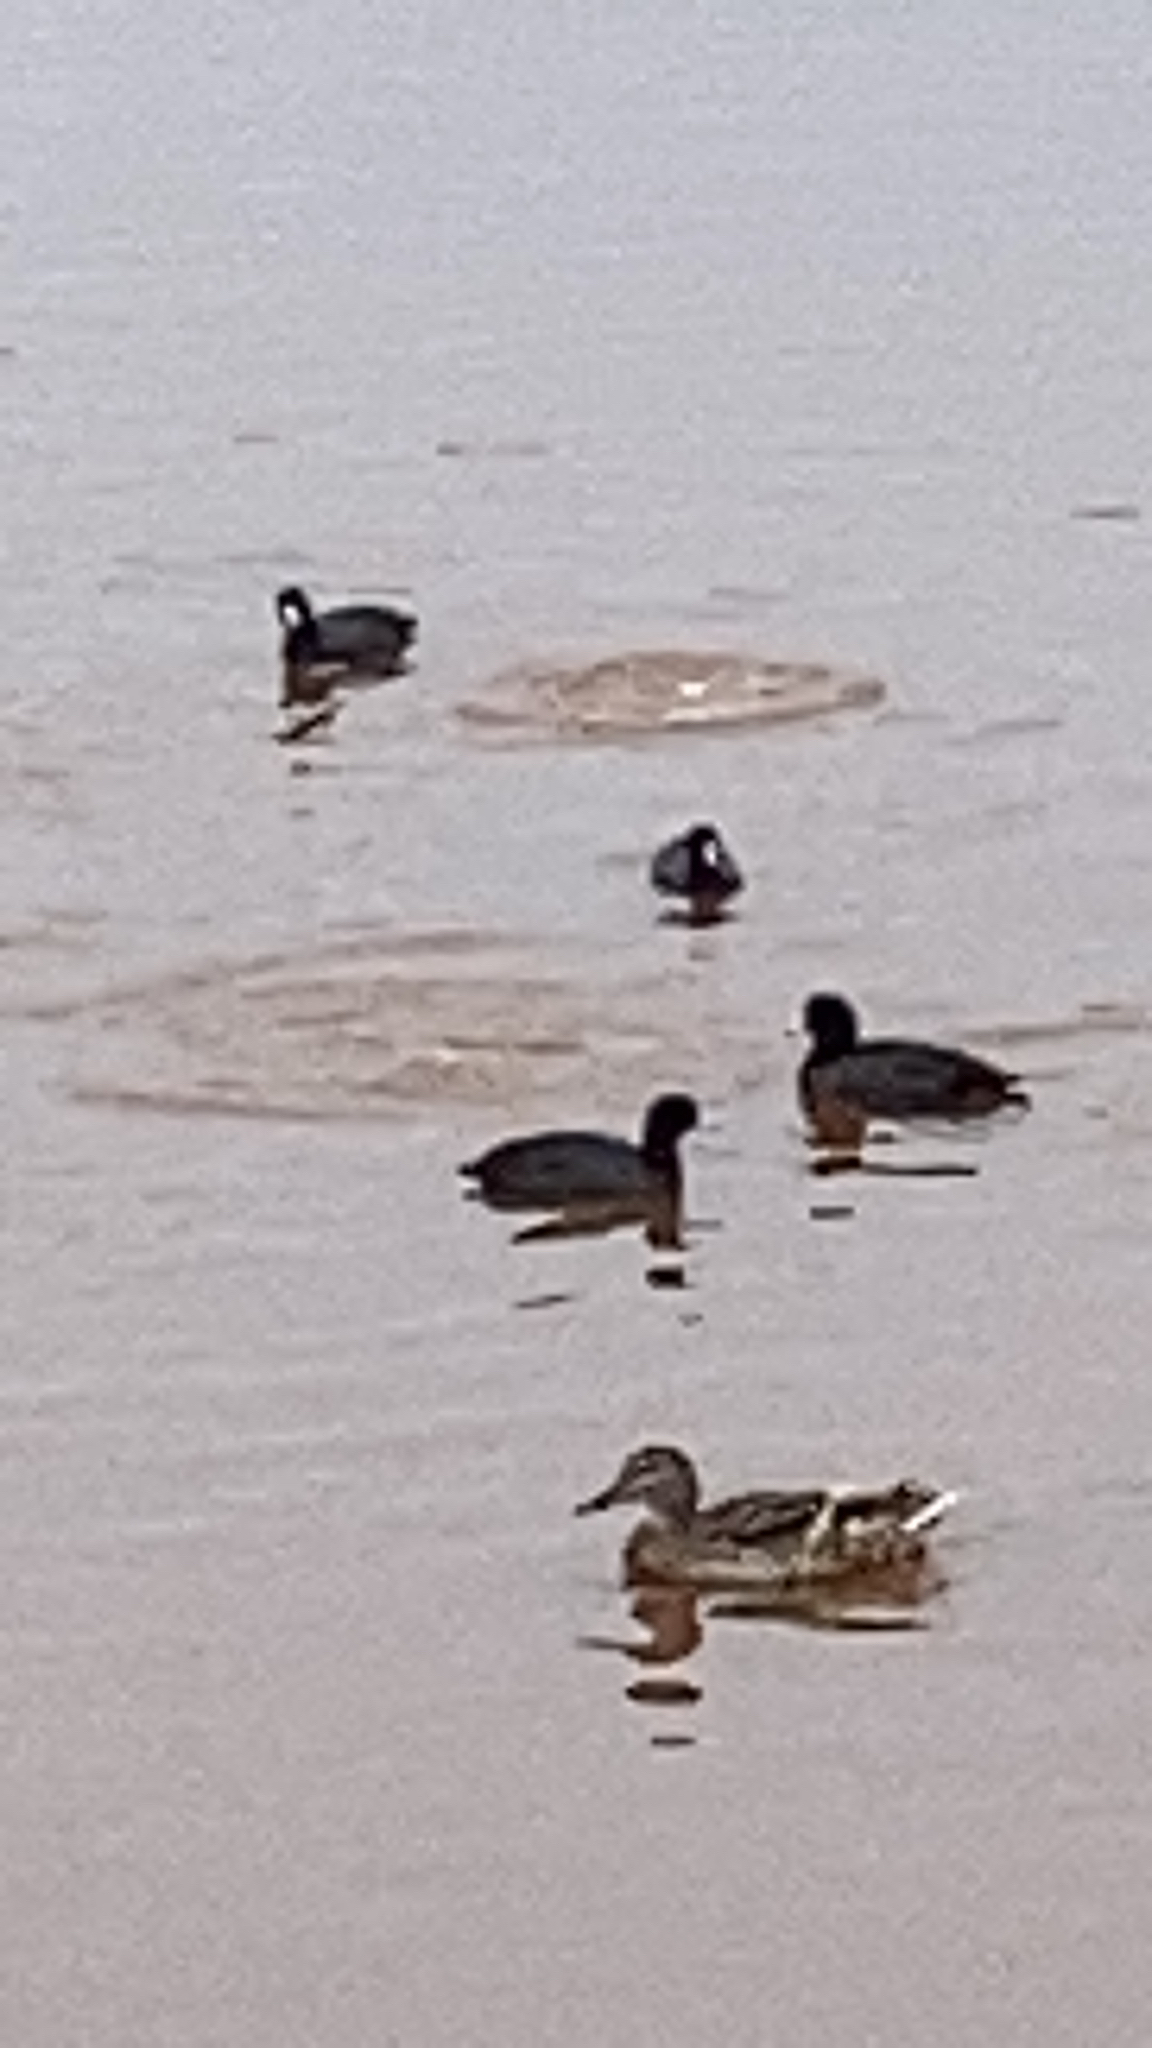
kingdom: Animalia
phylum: Chordata
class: Aves
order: Gruiformes
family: Rallidae
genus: Fulica
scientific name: Fulica americana
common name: American coot
